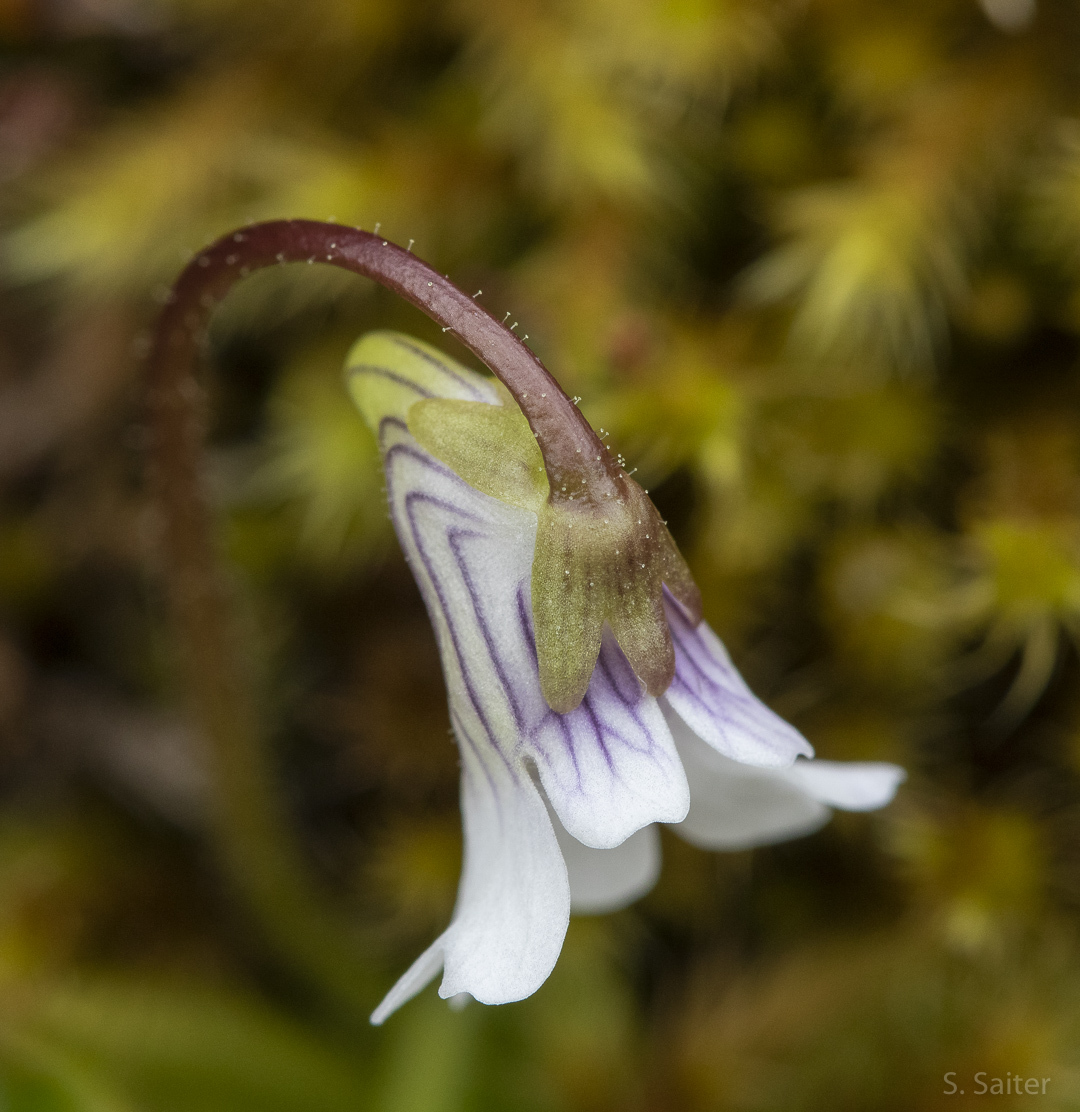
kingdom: Plantae
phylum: Tracheophyta
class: Magnoliopsida
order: Lamiales
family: Lentibulariaceae
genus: Pinguicula
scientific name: Pinguicula antarctica
